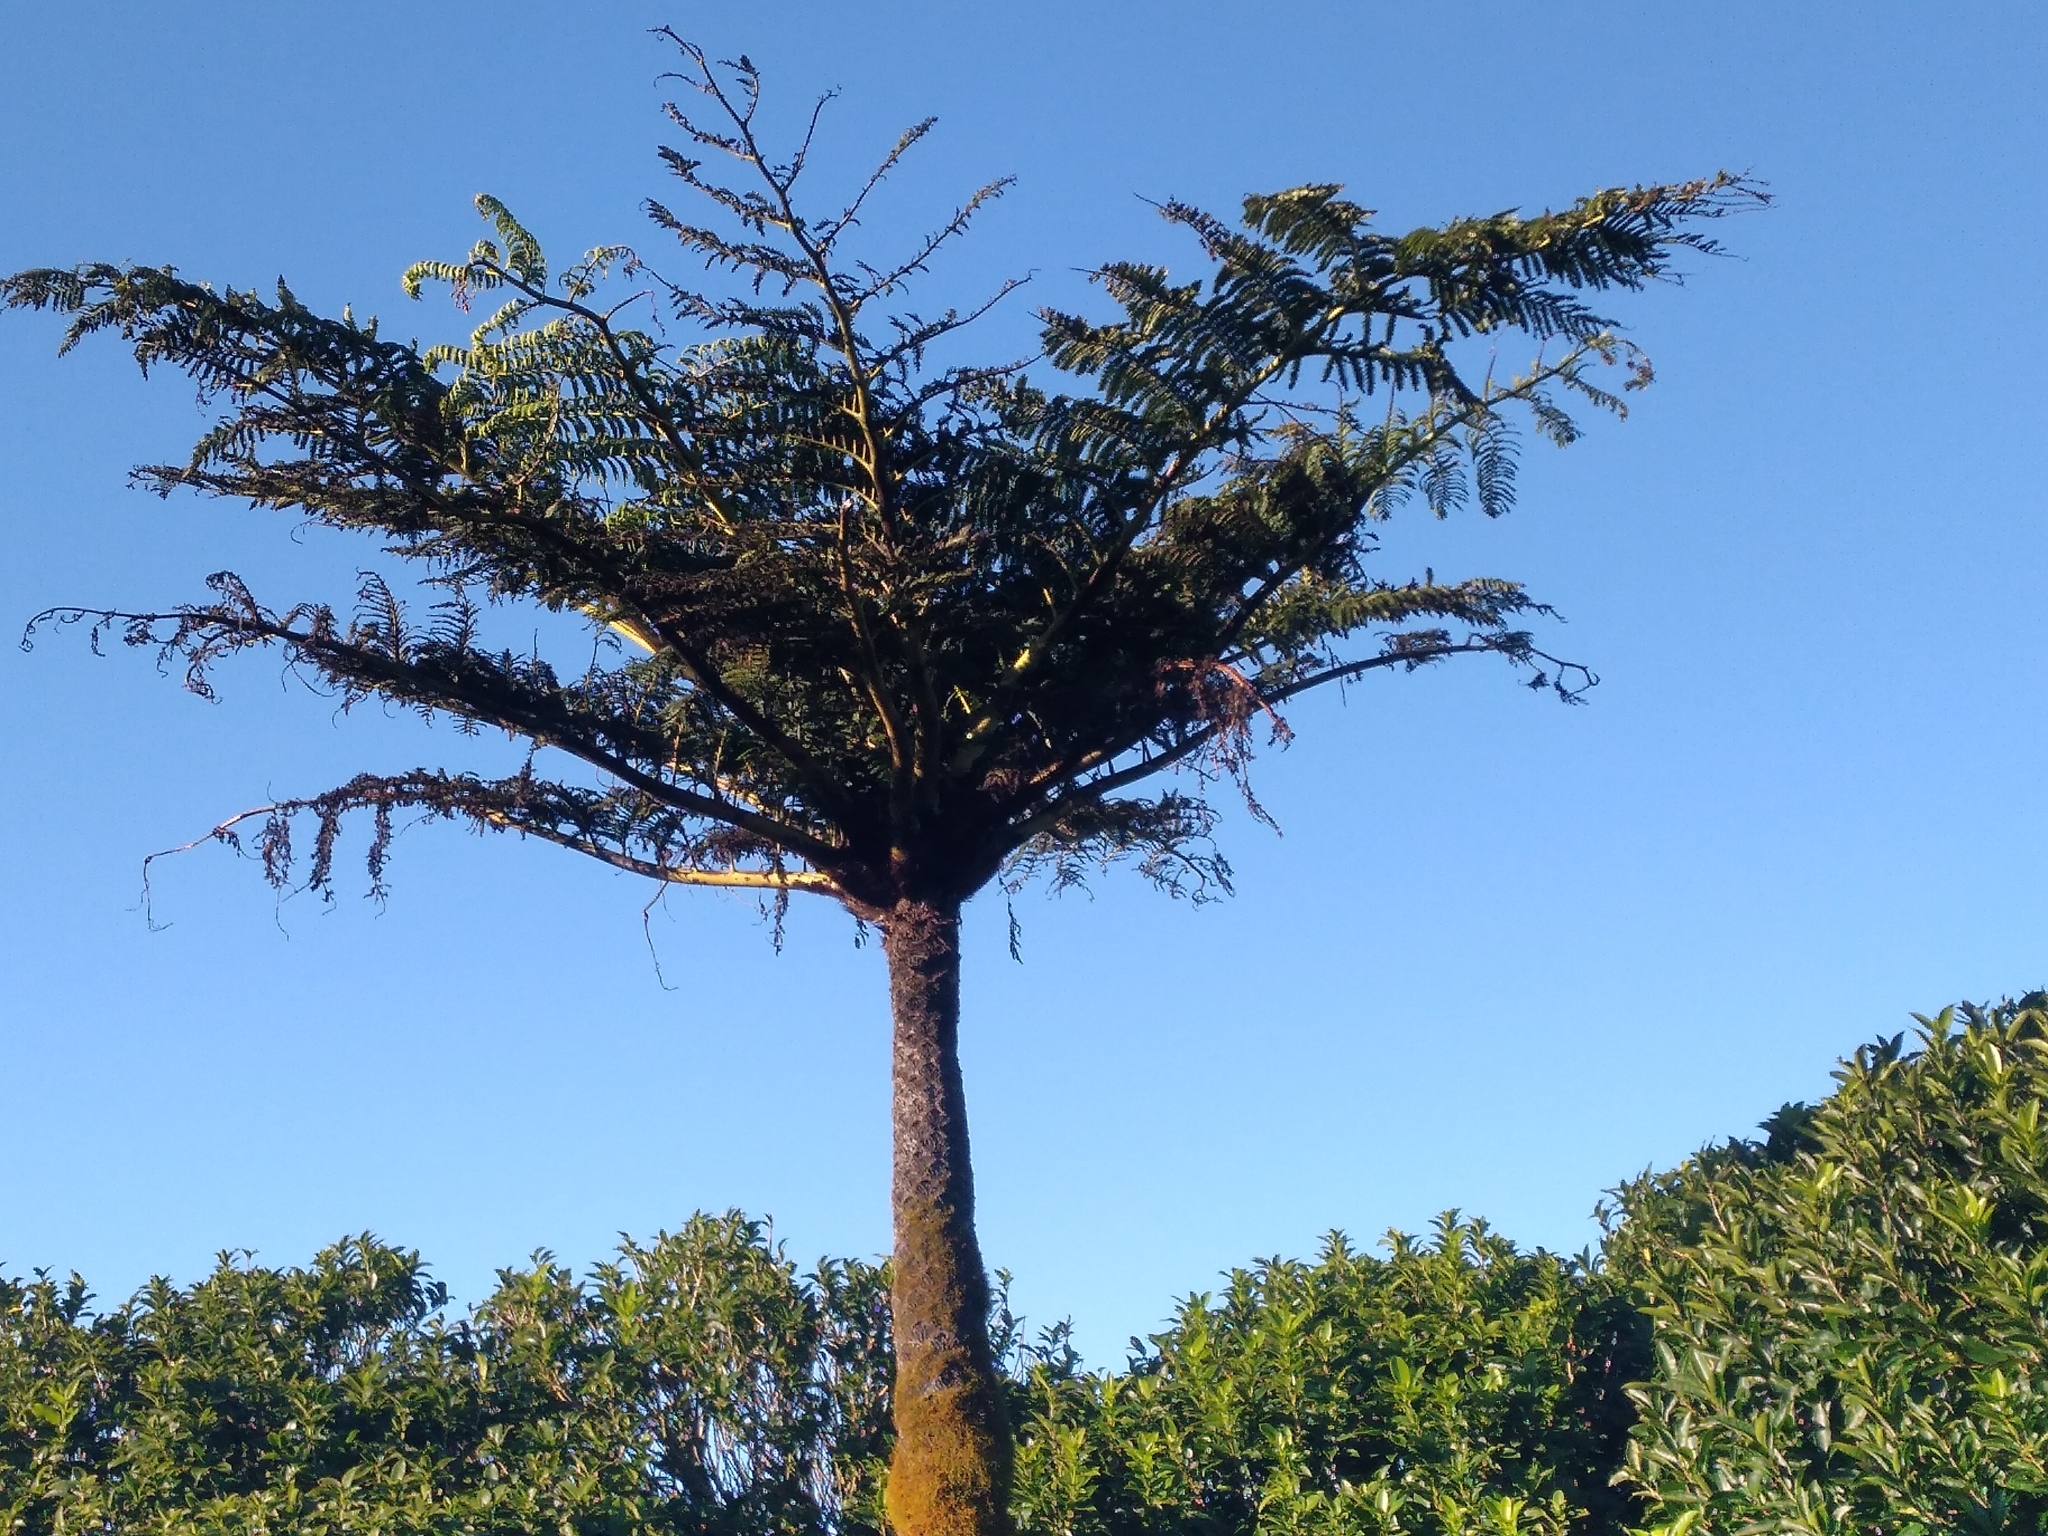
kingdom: Plantae
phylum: Tracheophyta
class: Polypodiopsida
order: Cyatheales
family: Cyatheaceae
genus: Sphaeropteris
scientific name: Sphaeropteris medullaris
